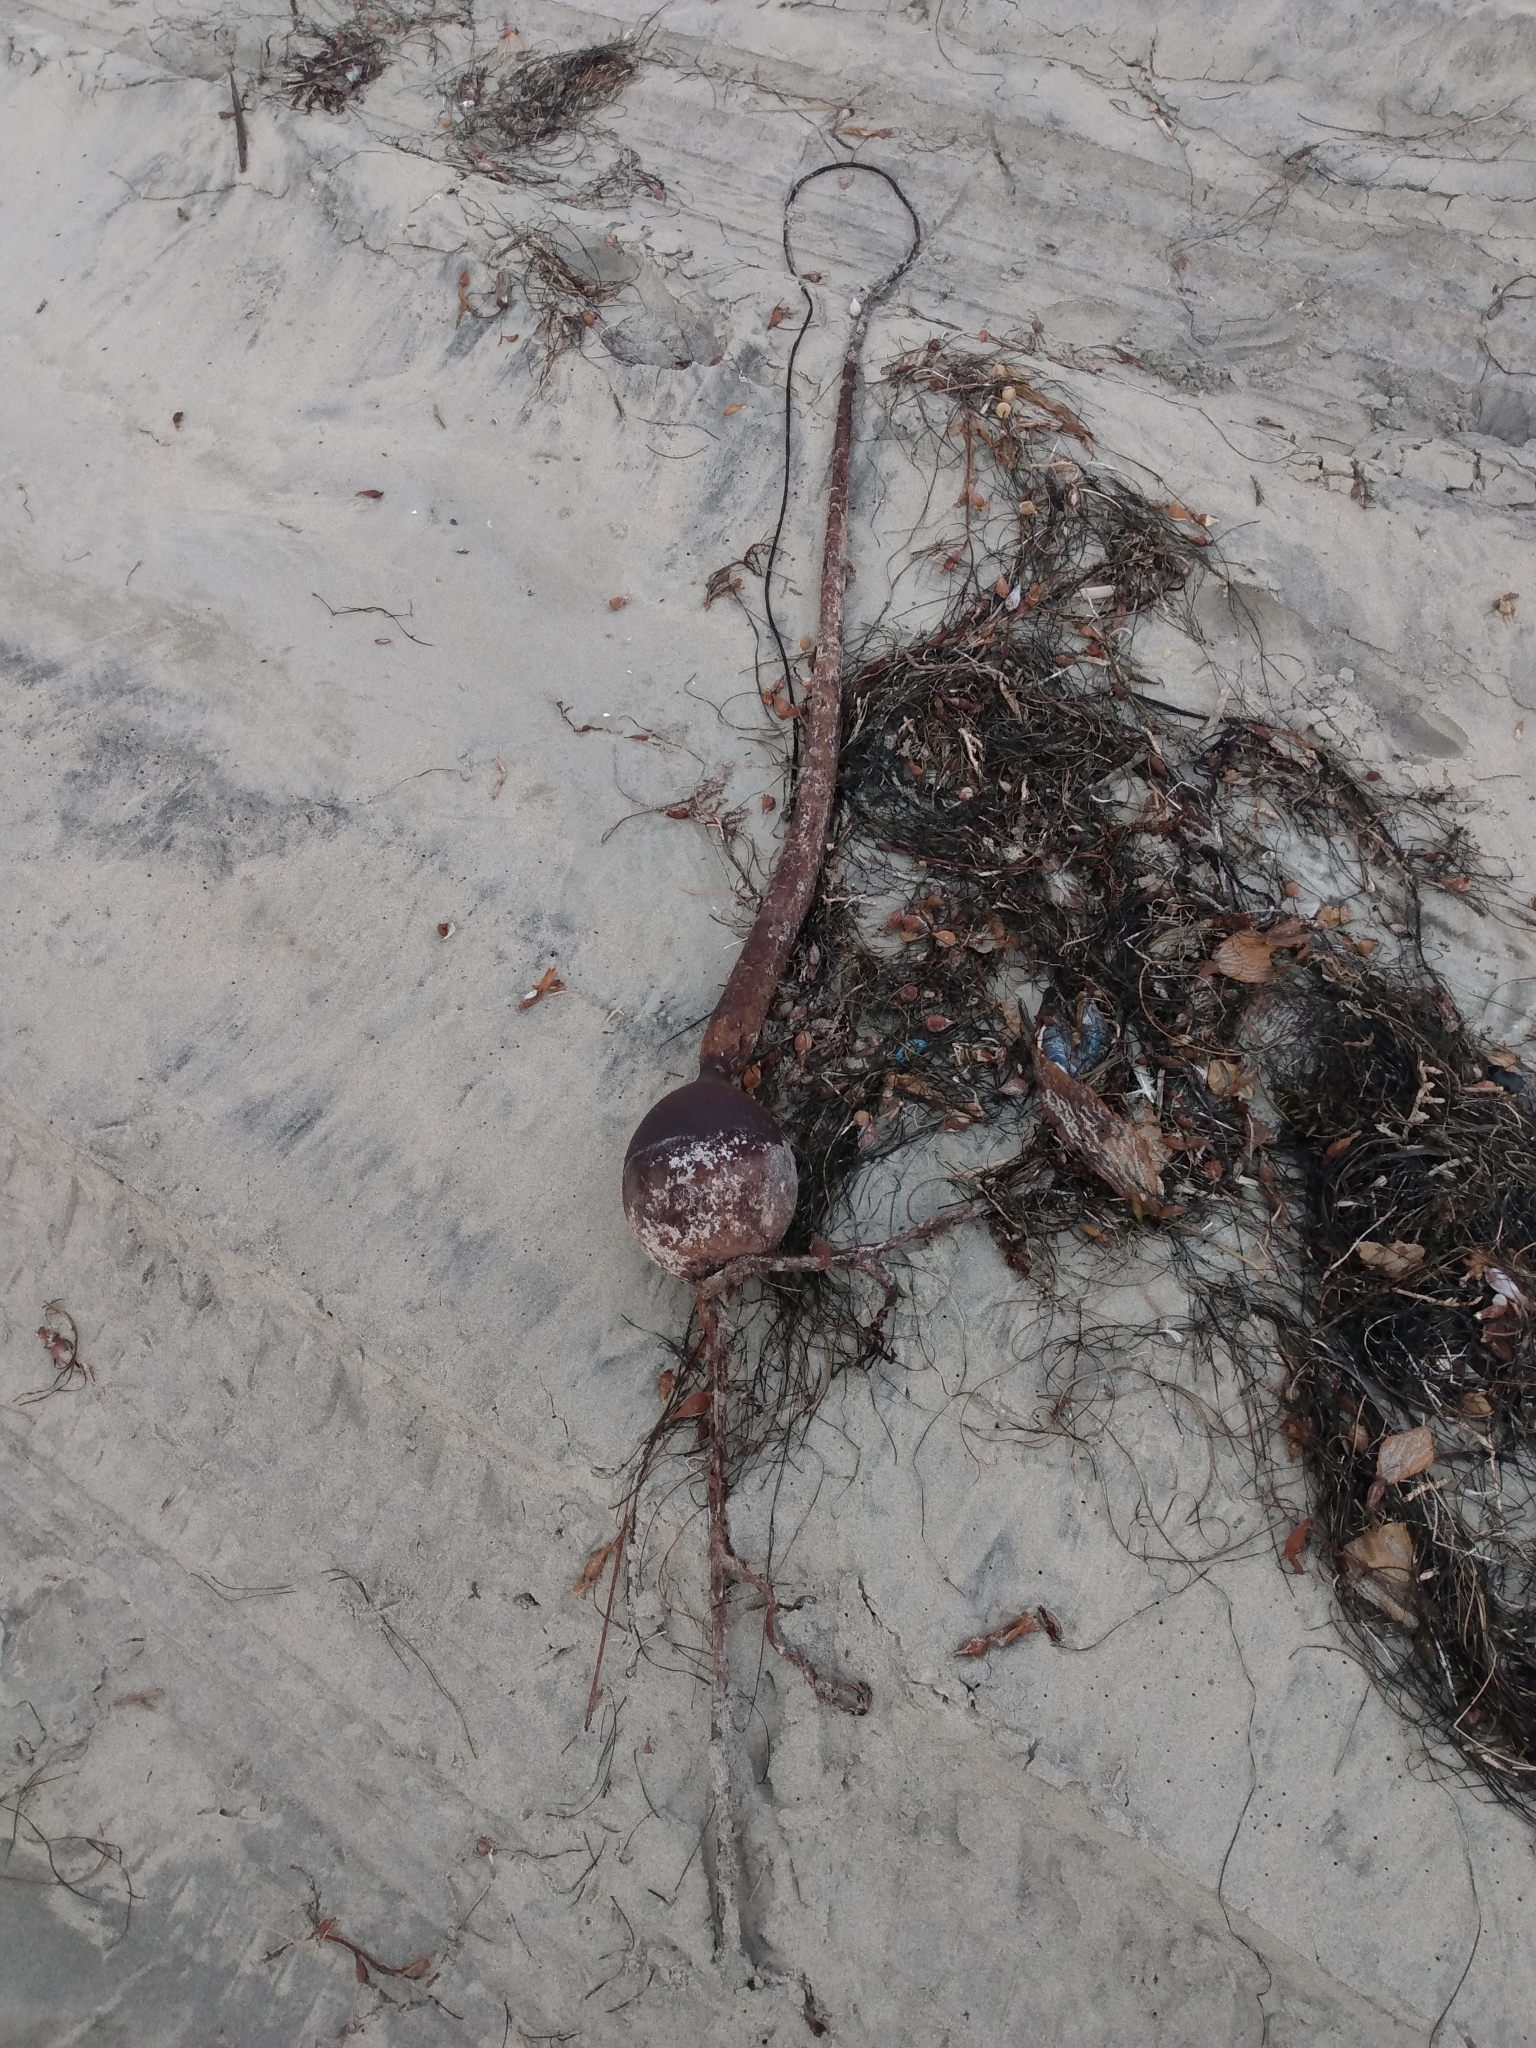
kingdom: Chromista
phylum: Ochrophyta
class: Phaeophyceae
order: Laminariales
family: Laminariaceae
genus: Pelagophycus
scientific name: Pelagophycus porra
